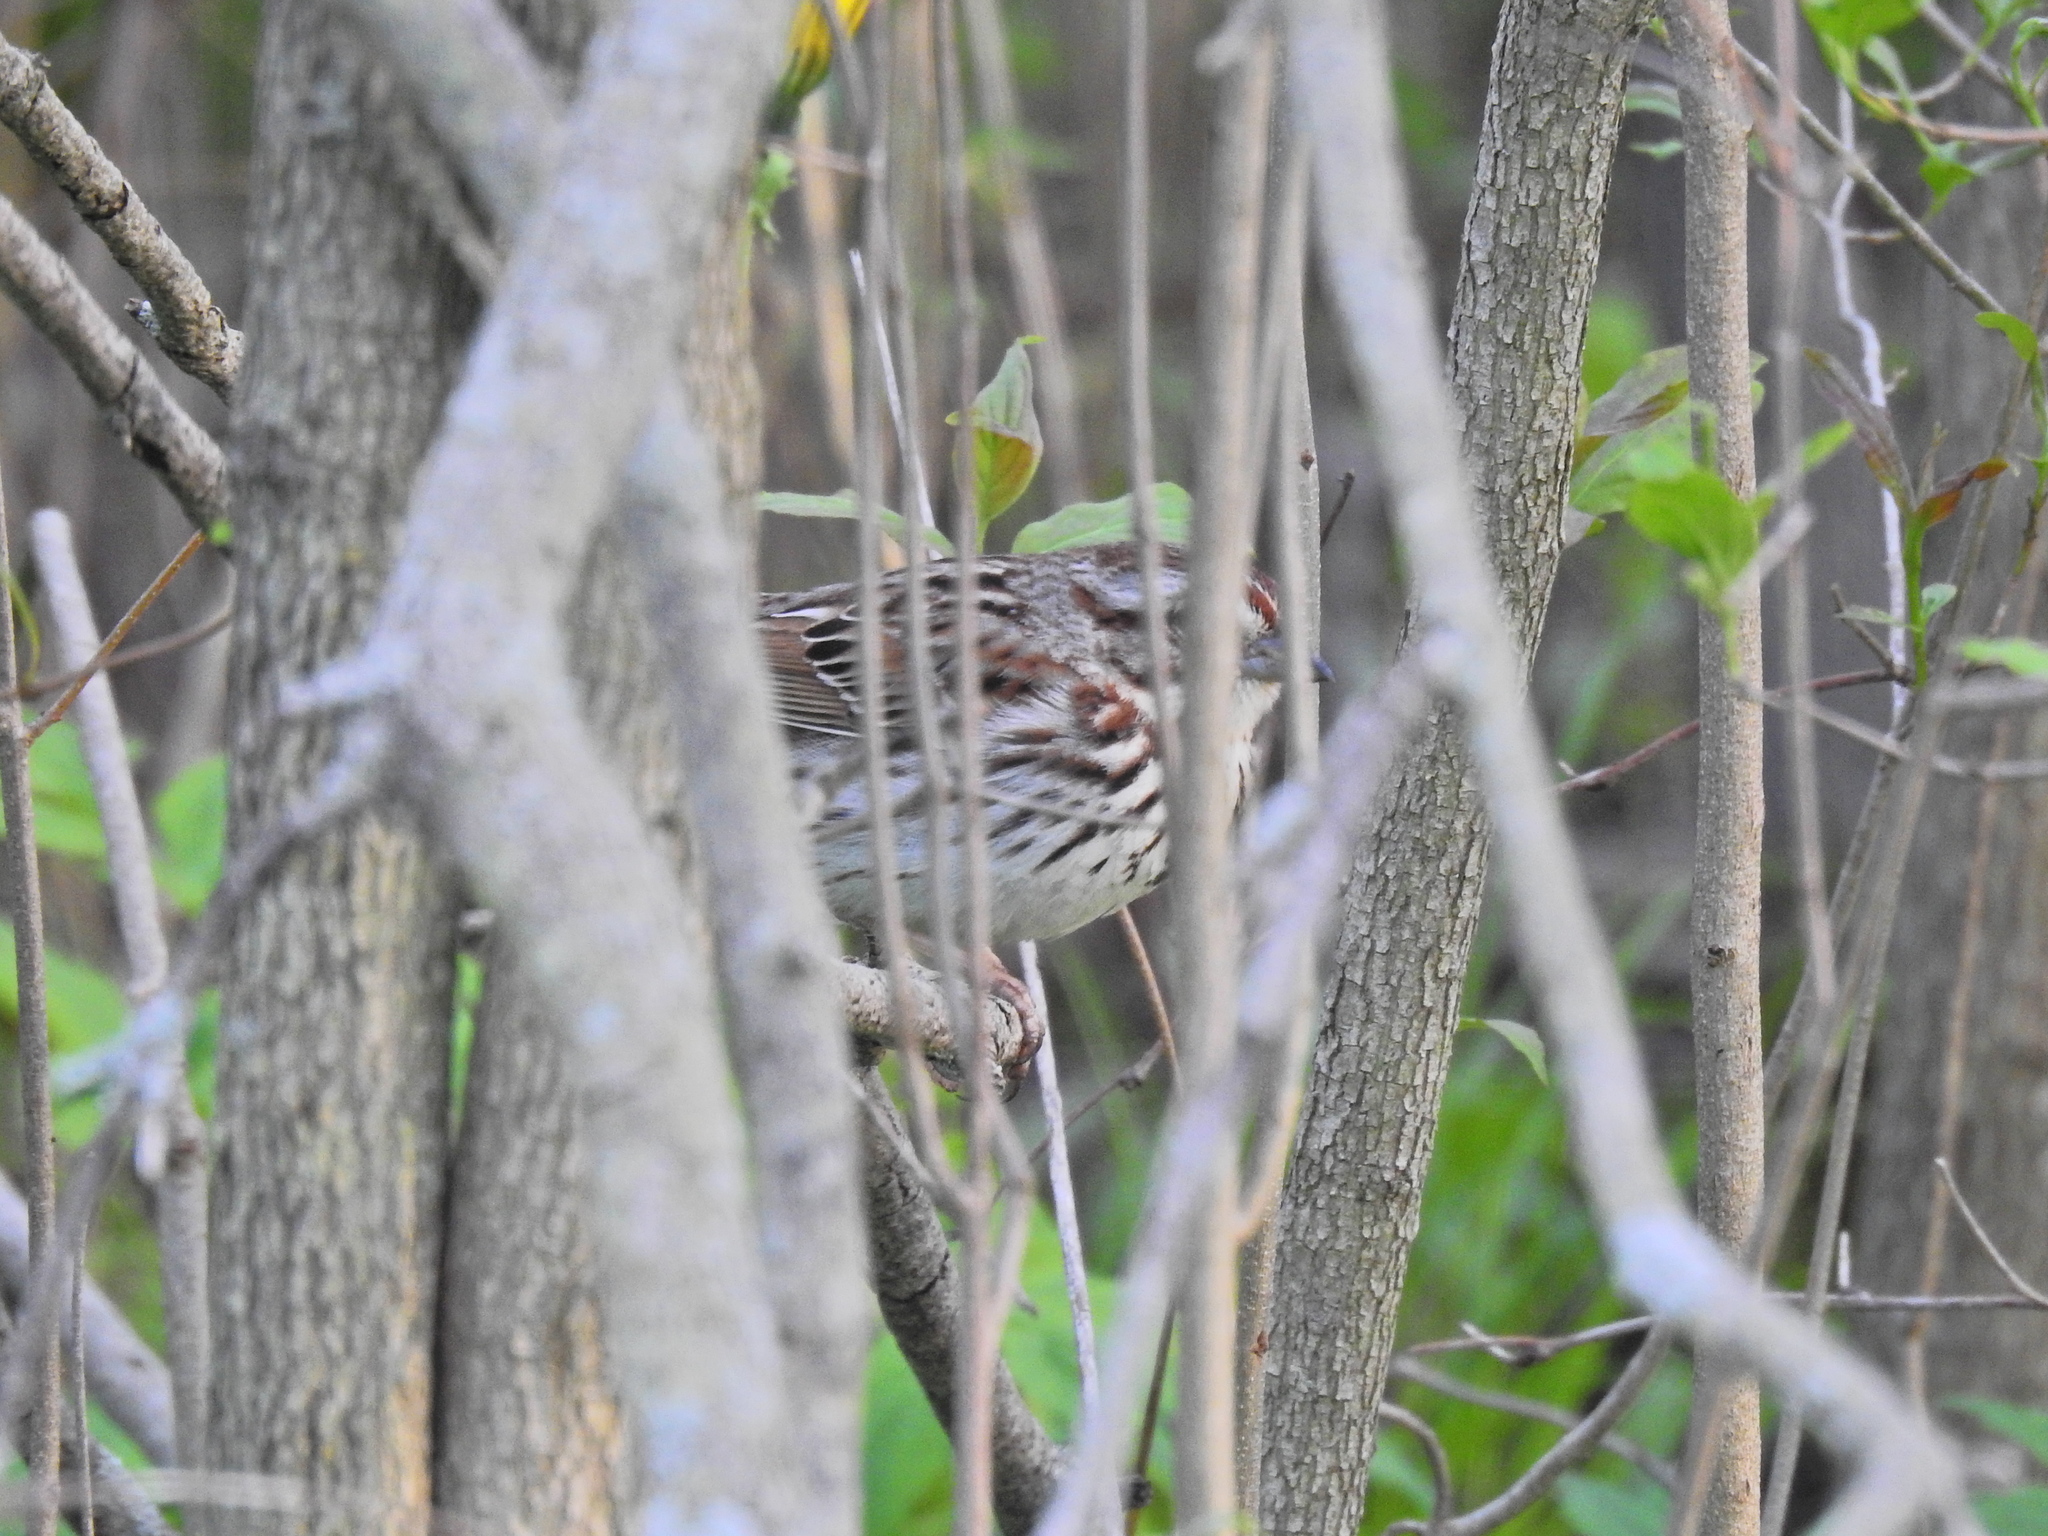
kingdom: Animalia
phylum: Chordata
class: Aves
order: Passeriformes
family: Passerellidae
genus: Melospiza
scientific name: Melospiza melodia
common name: Song sparrow
